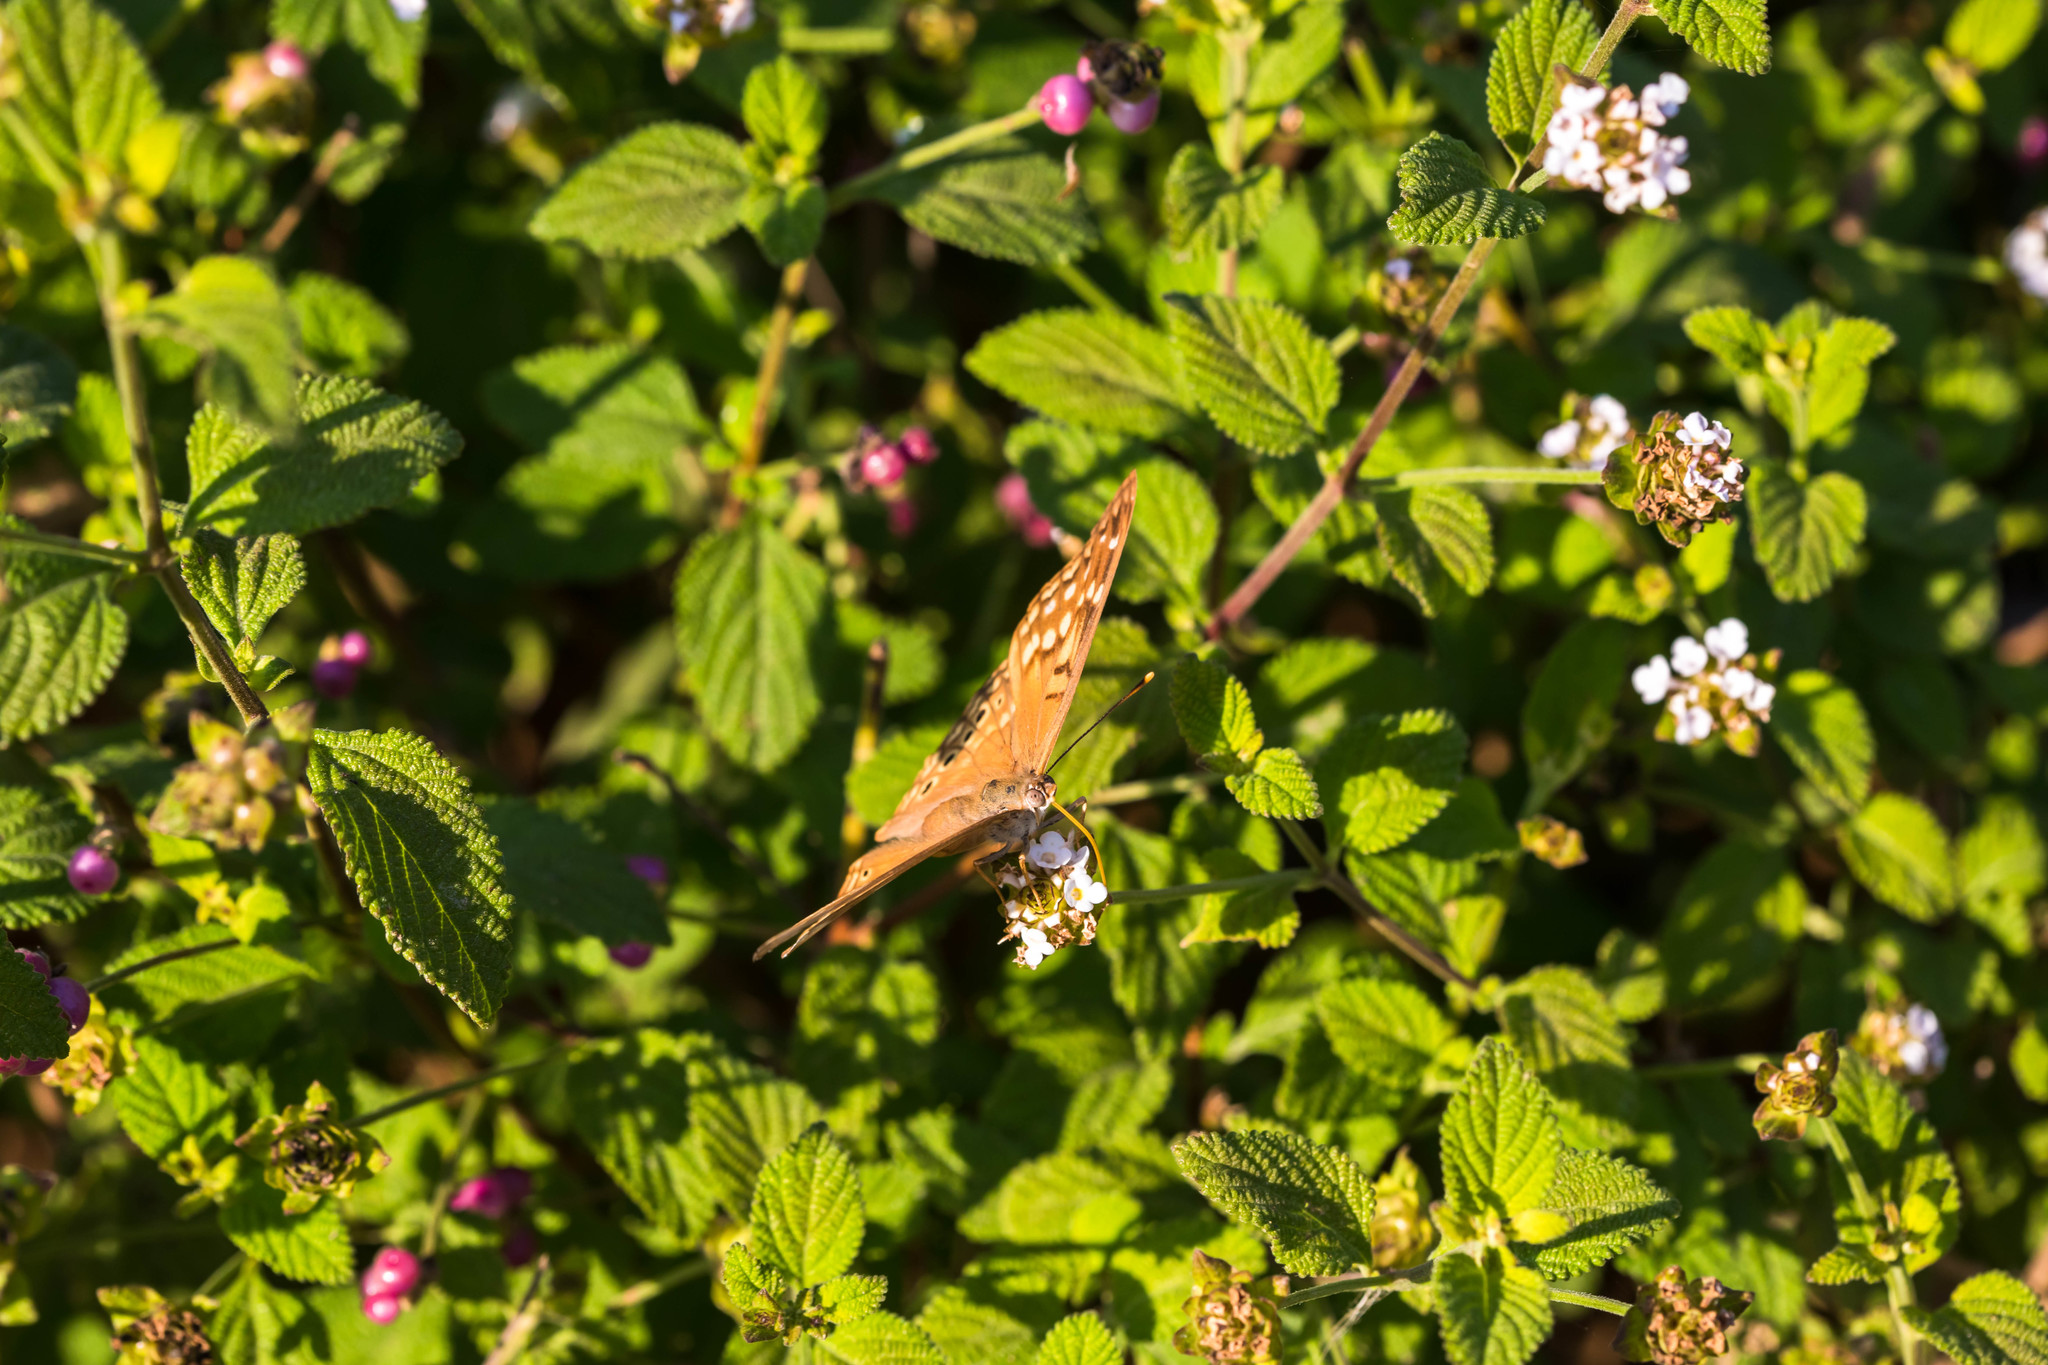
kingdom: Animalia
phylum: Arthropoda
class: Insecta
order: Lepidoptera
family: Nymphalidae
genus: Asterocampa
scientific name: Asterocampa clyton
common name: Tawny emperor
